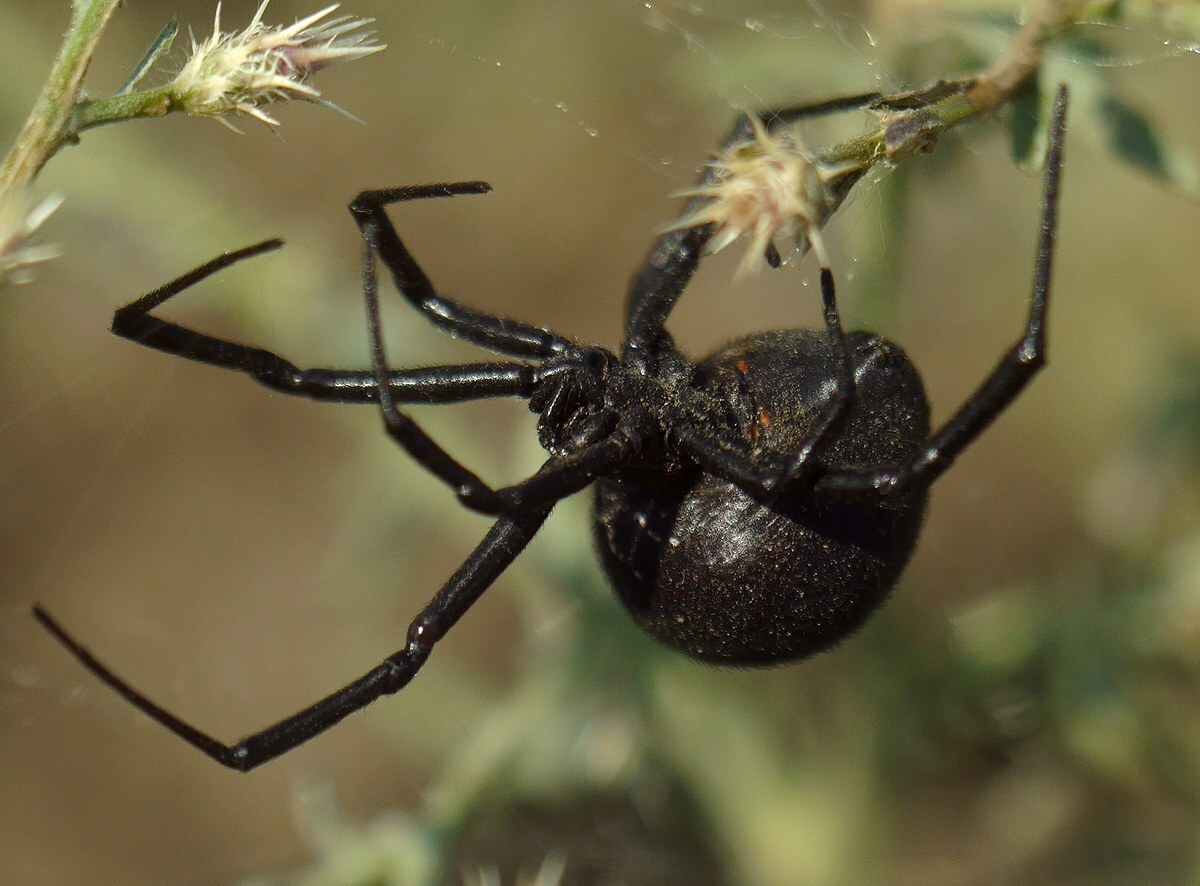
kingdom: Animalia
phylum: Arthropoda
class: Arachnida
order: Araneae
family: Theridiidae
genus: Latrodectus
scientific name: Latrodectus tredecimguttatus
